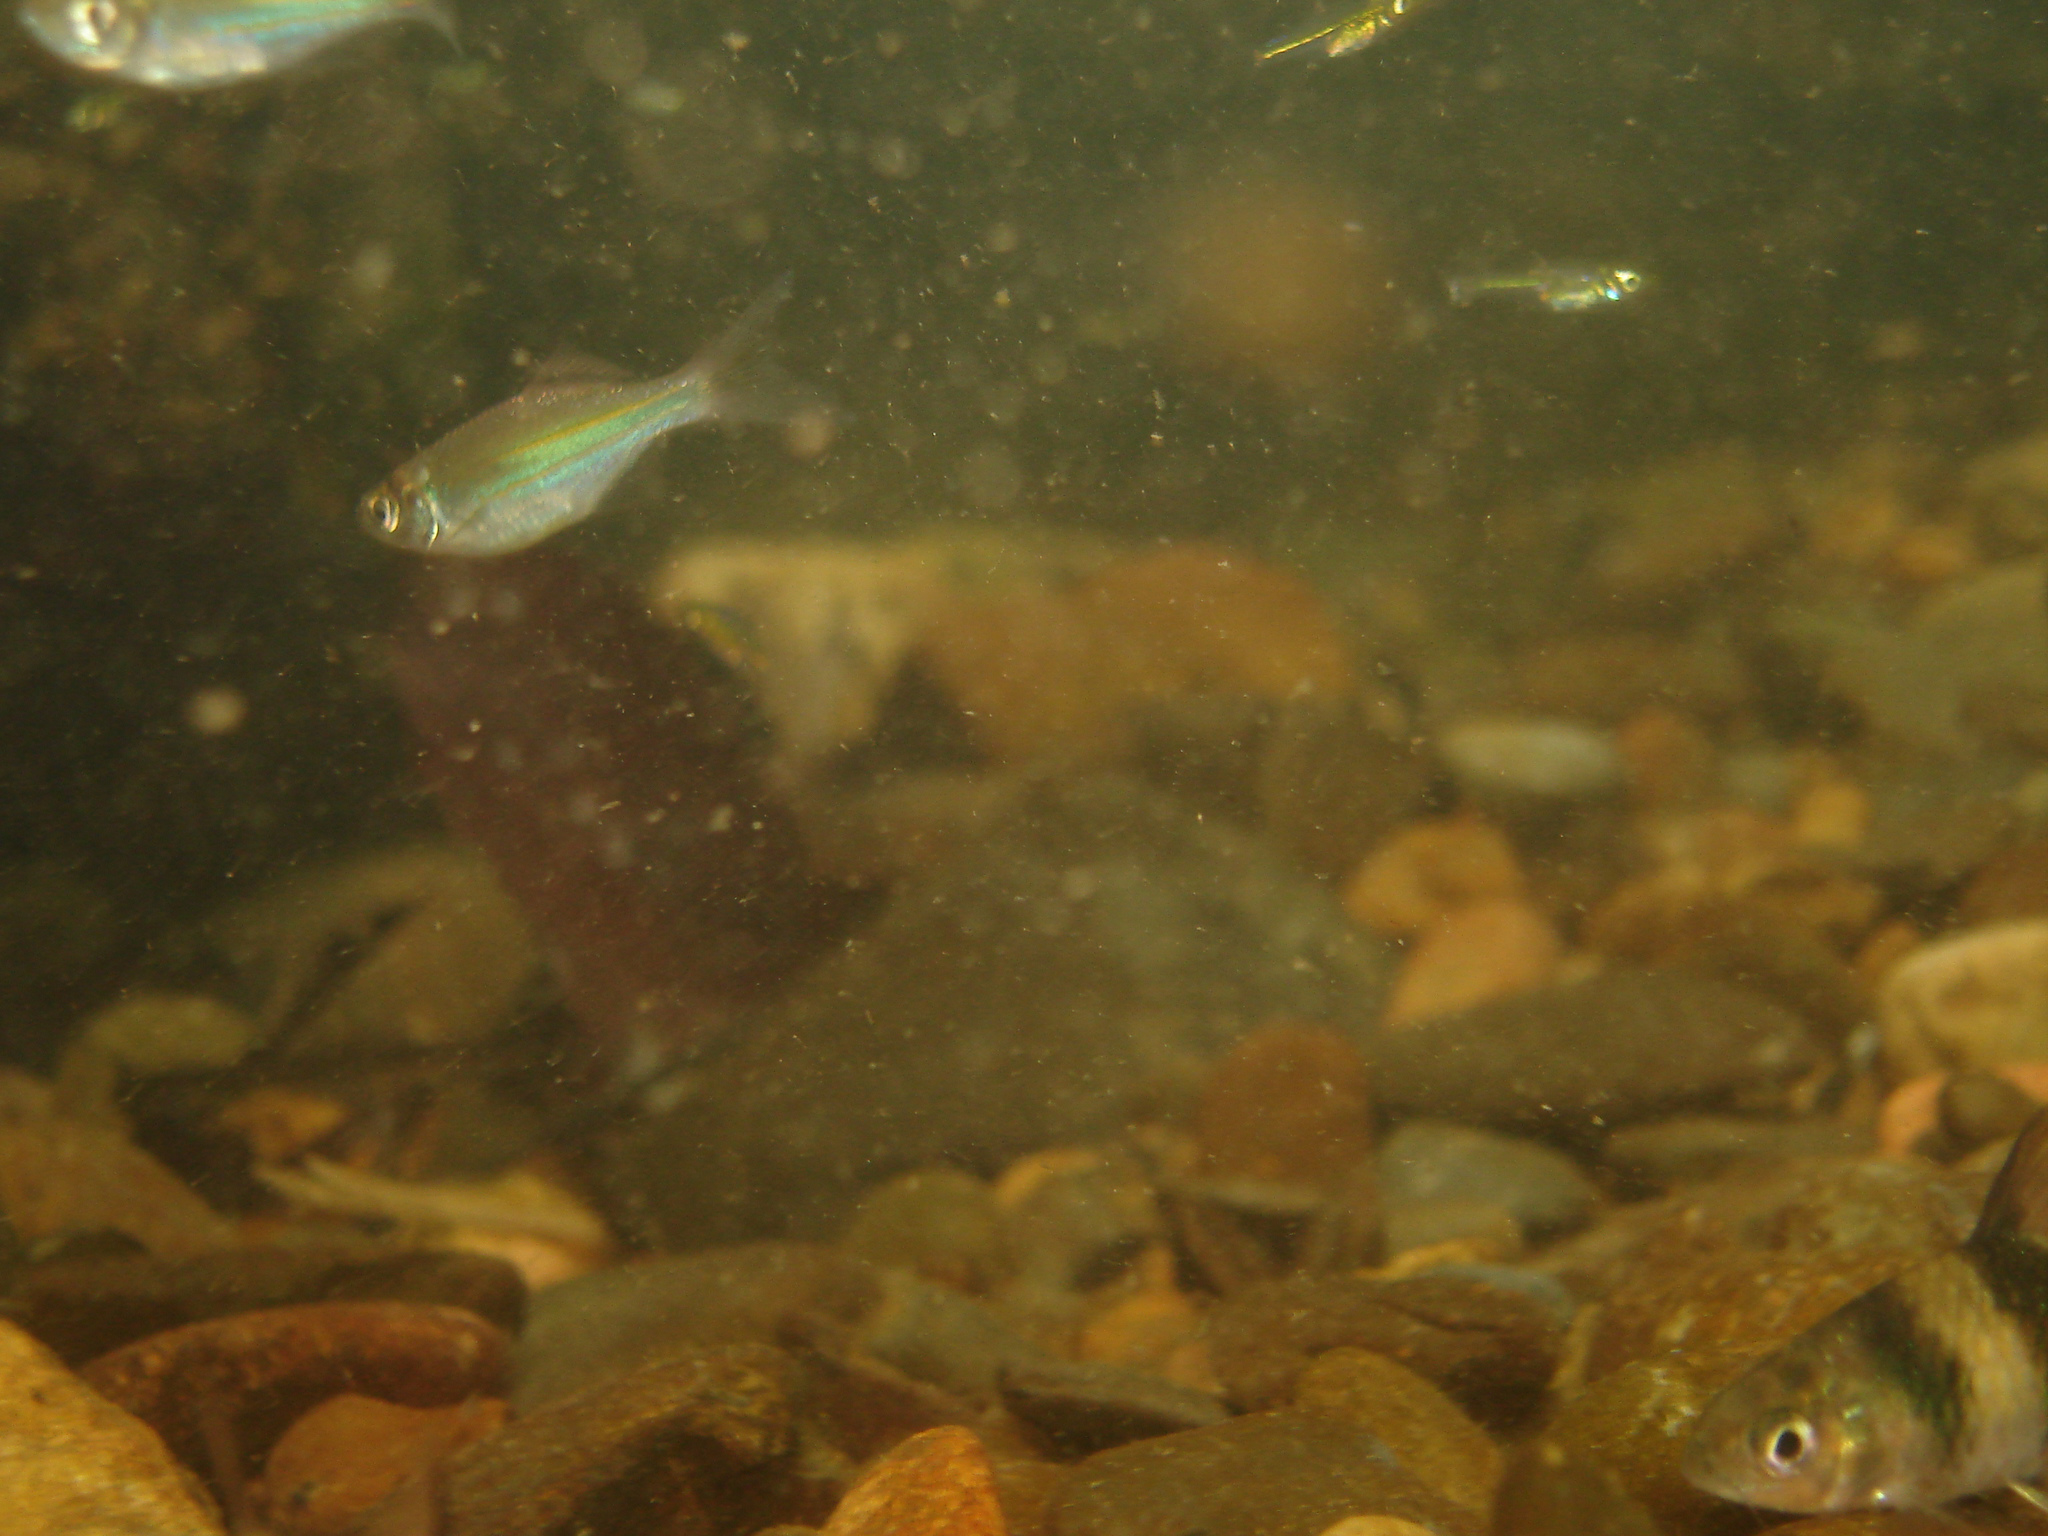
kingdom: Animalia
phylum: Chordata
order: Cypriniformes
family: Cyprinidae
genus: Devario
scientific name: Devario regina
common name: Fowler's danio
